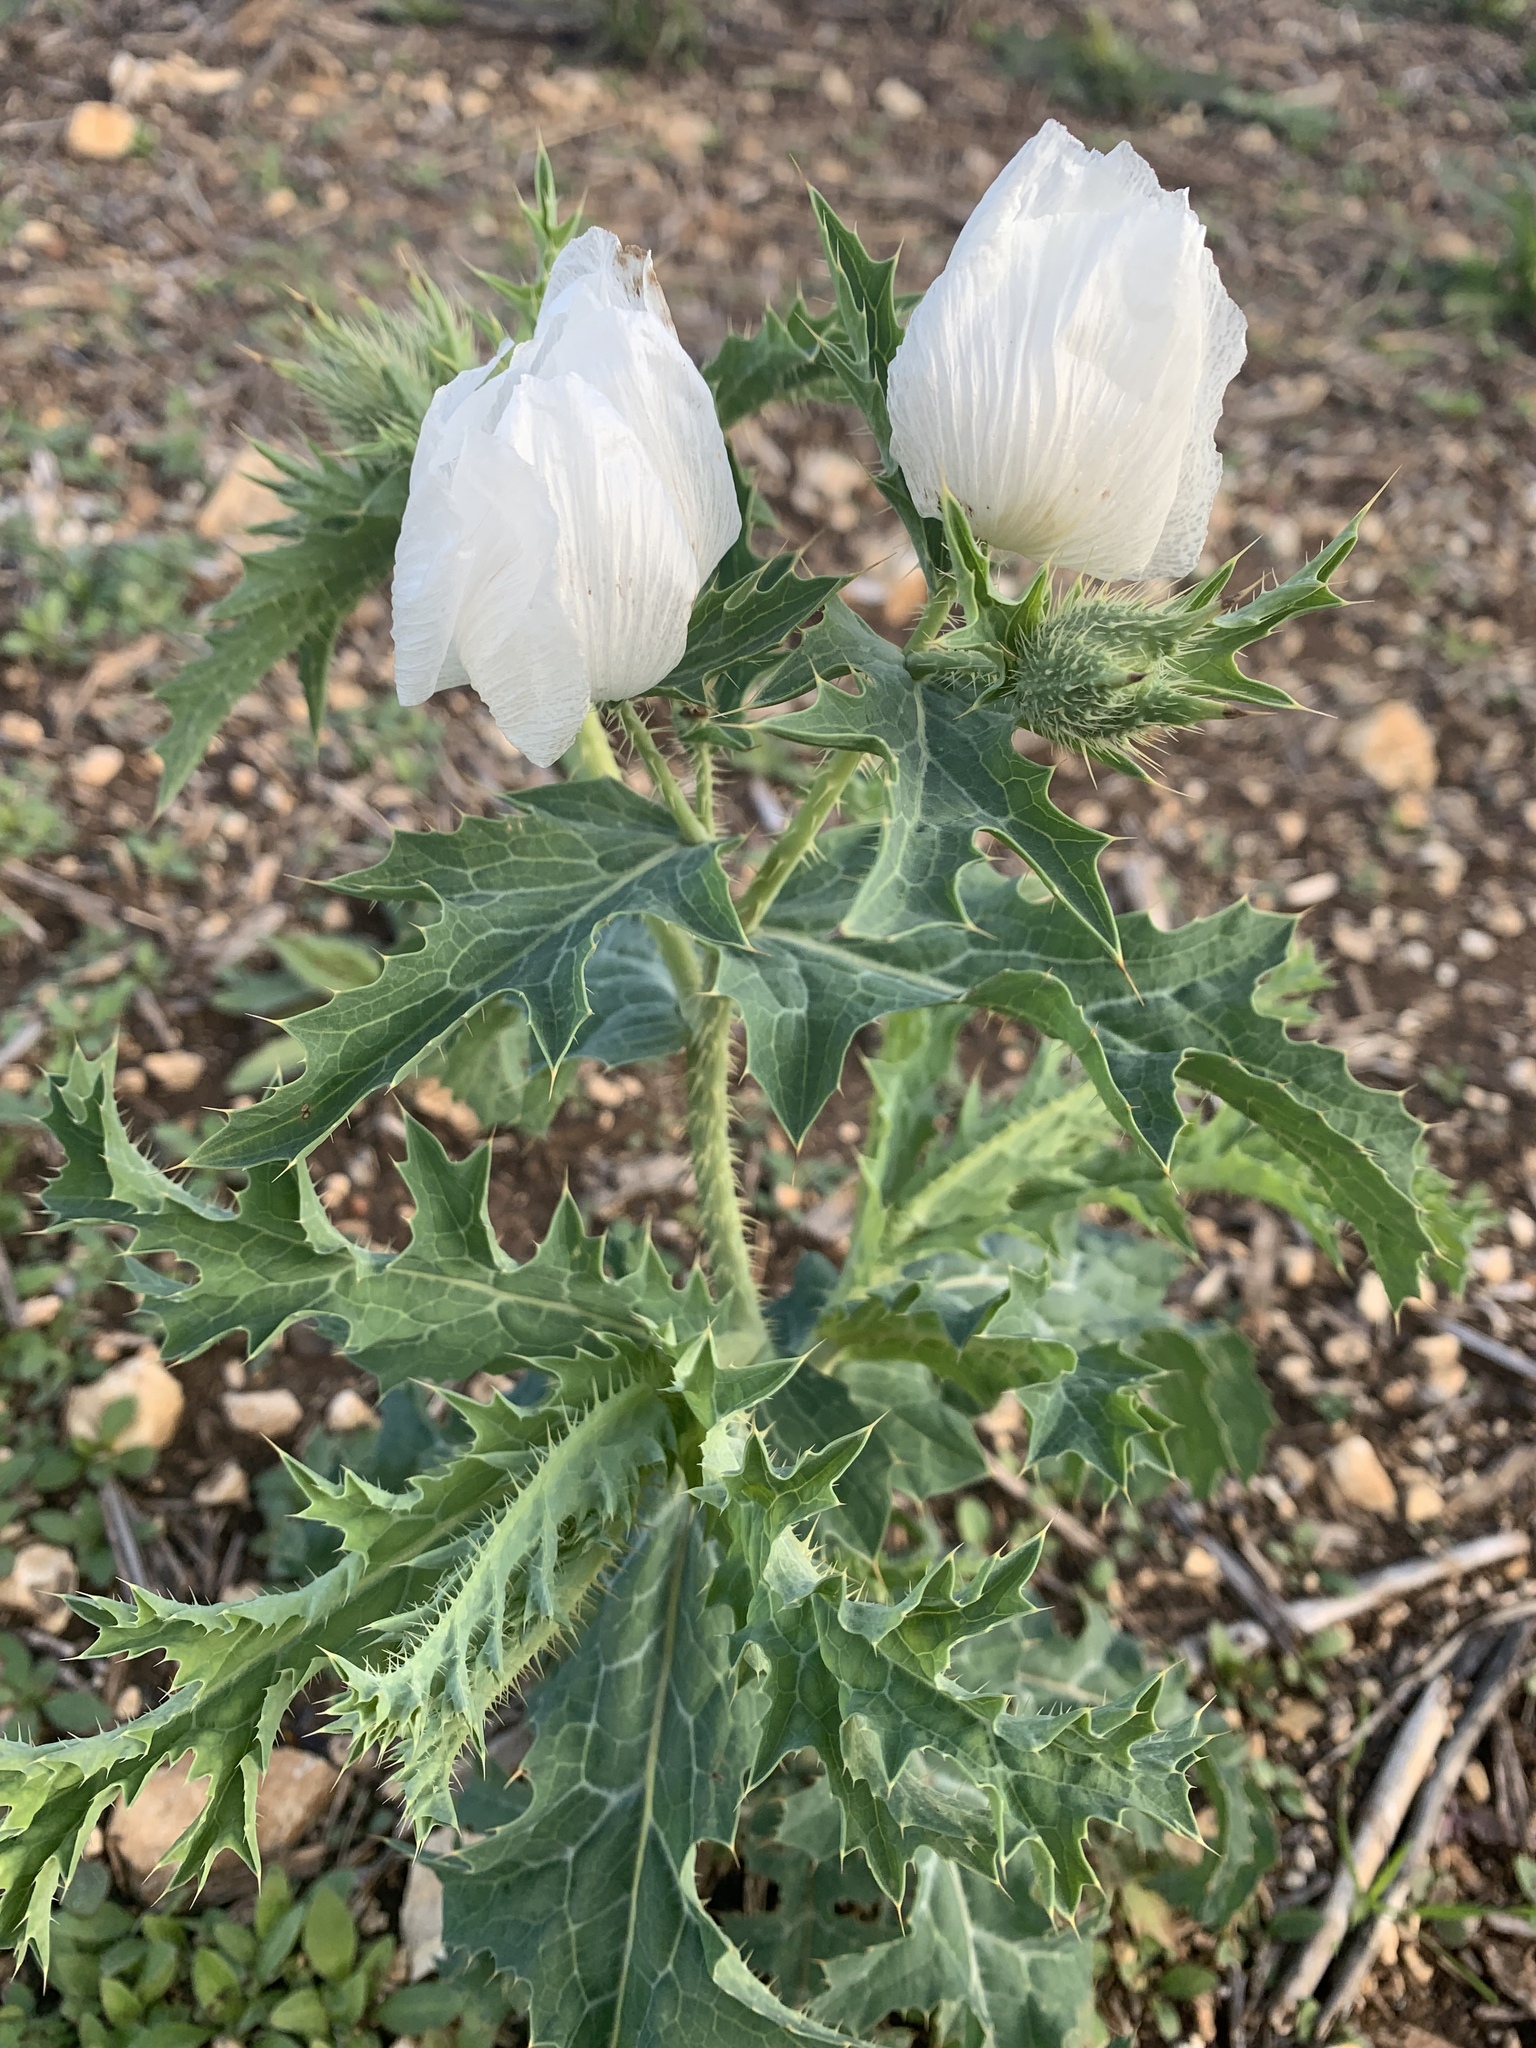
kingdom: Plantae
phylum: Tracheophyta
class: Magnoliopsida
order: Ranunculales
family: Papaveraceae
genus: Argemone
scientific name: Argemone albiflora
